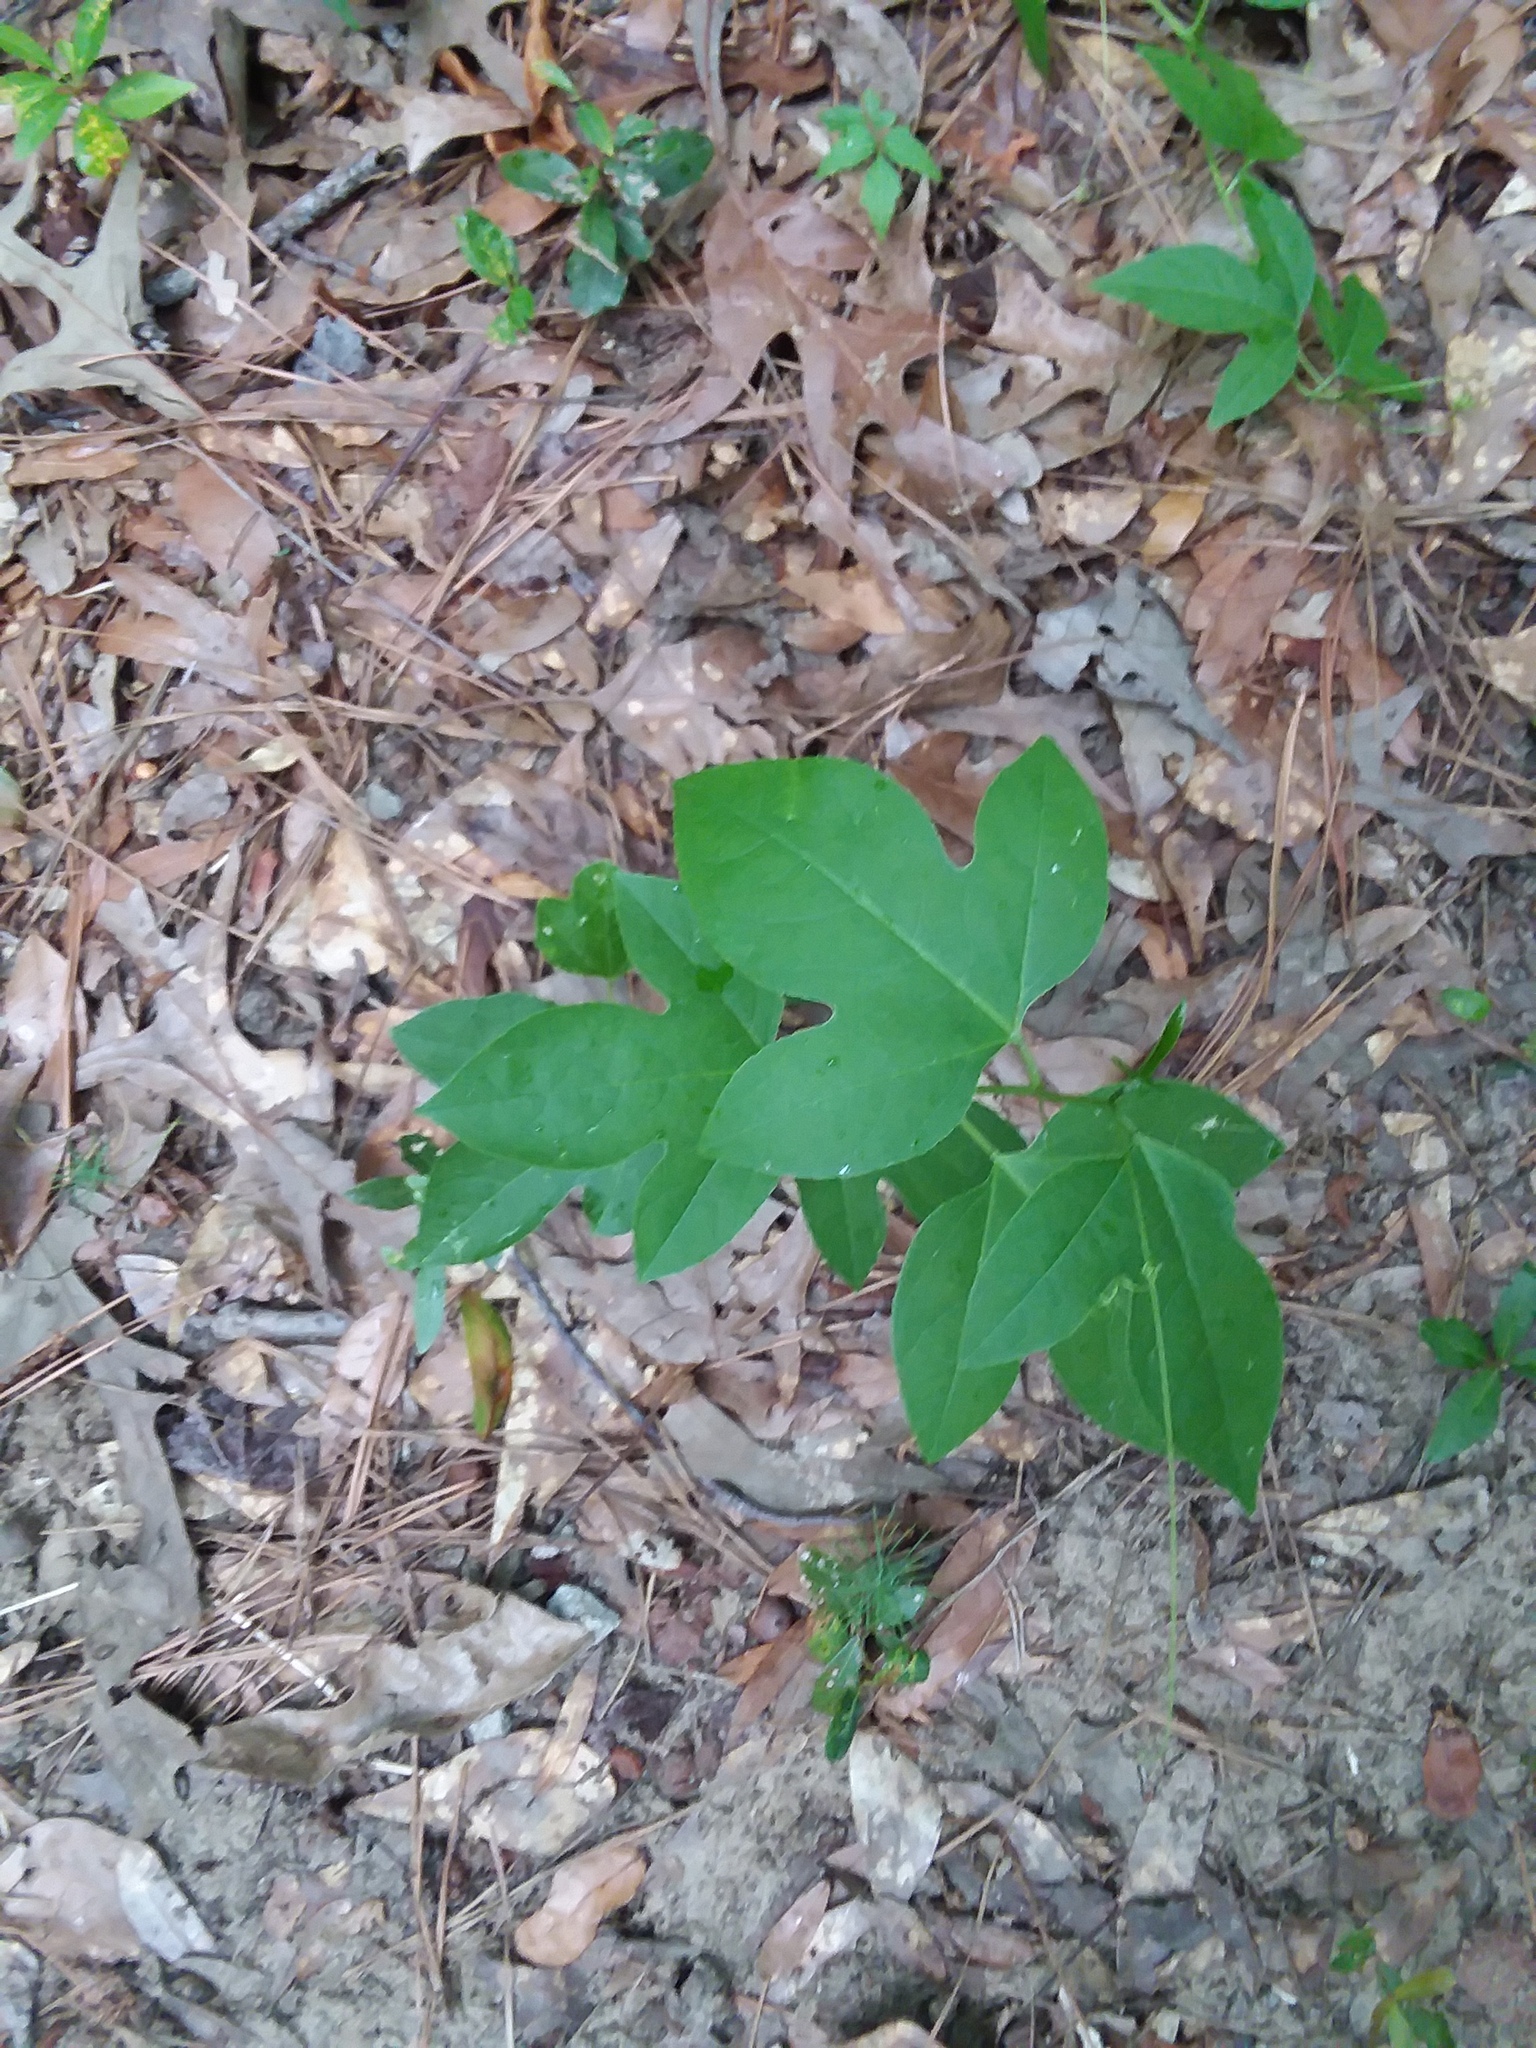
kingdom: Plantae
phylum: Tracheophyta
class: Magnoliopsida
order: Malpighiales
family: Passifloraceae
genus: Passiflora
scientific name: Passiflora incarnata
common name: Apricot-vine
